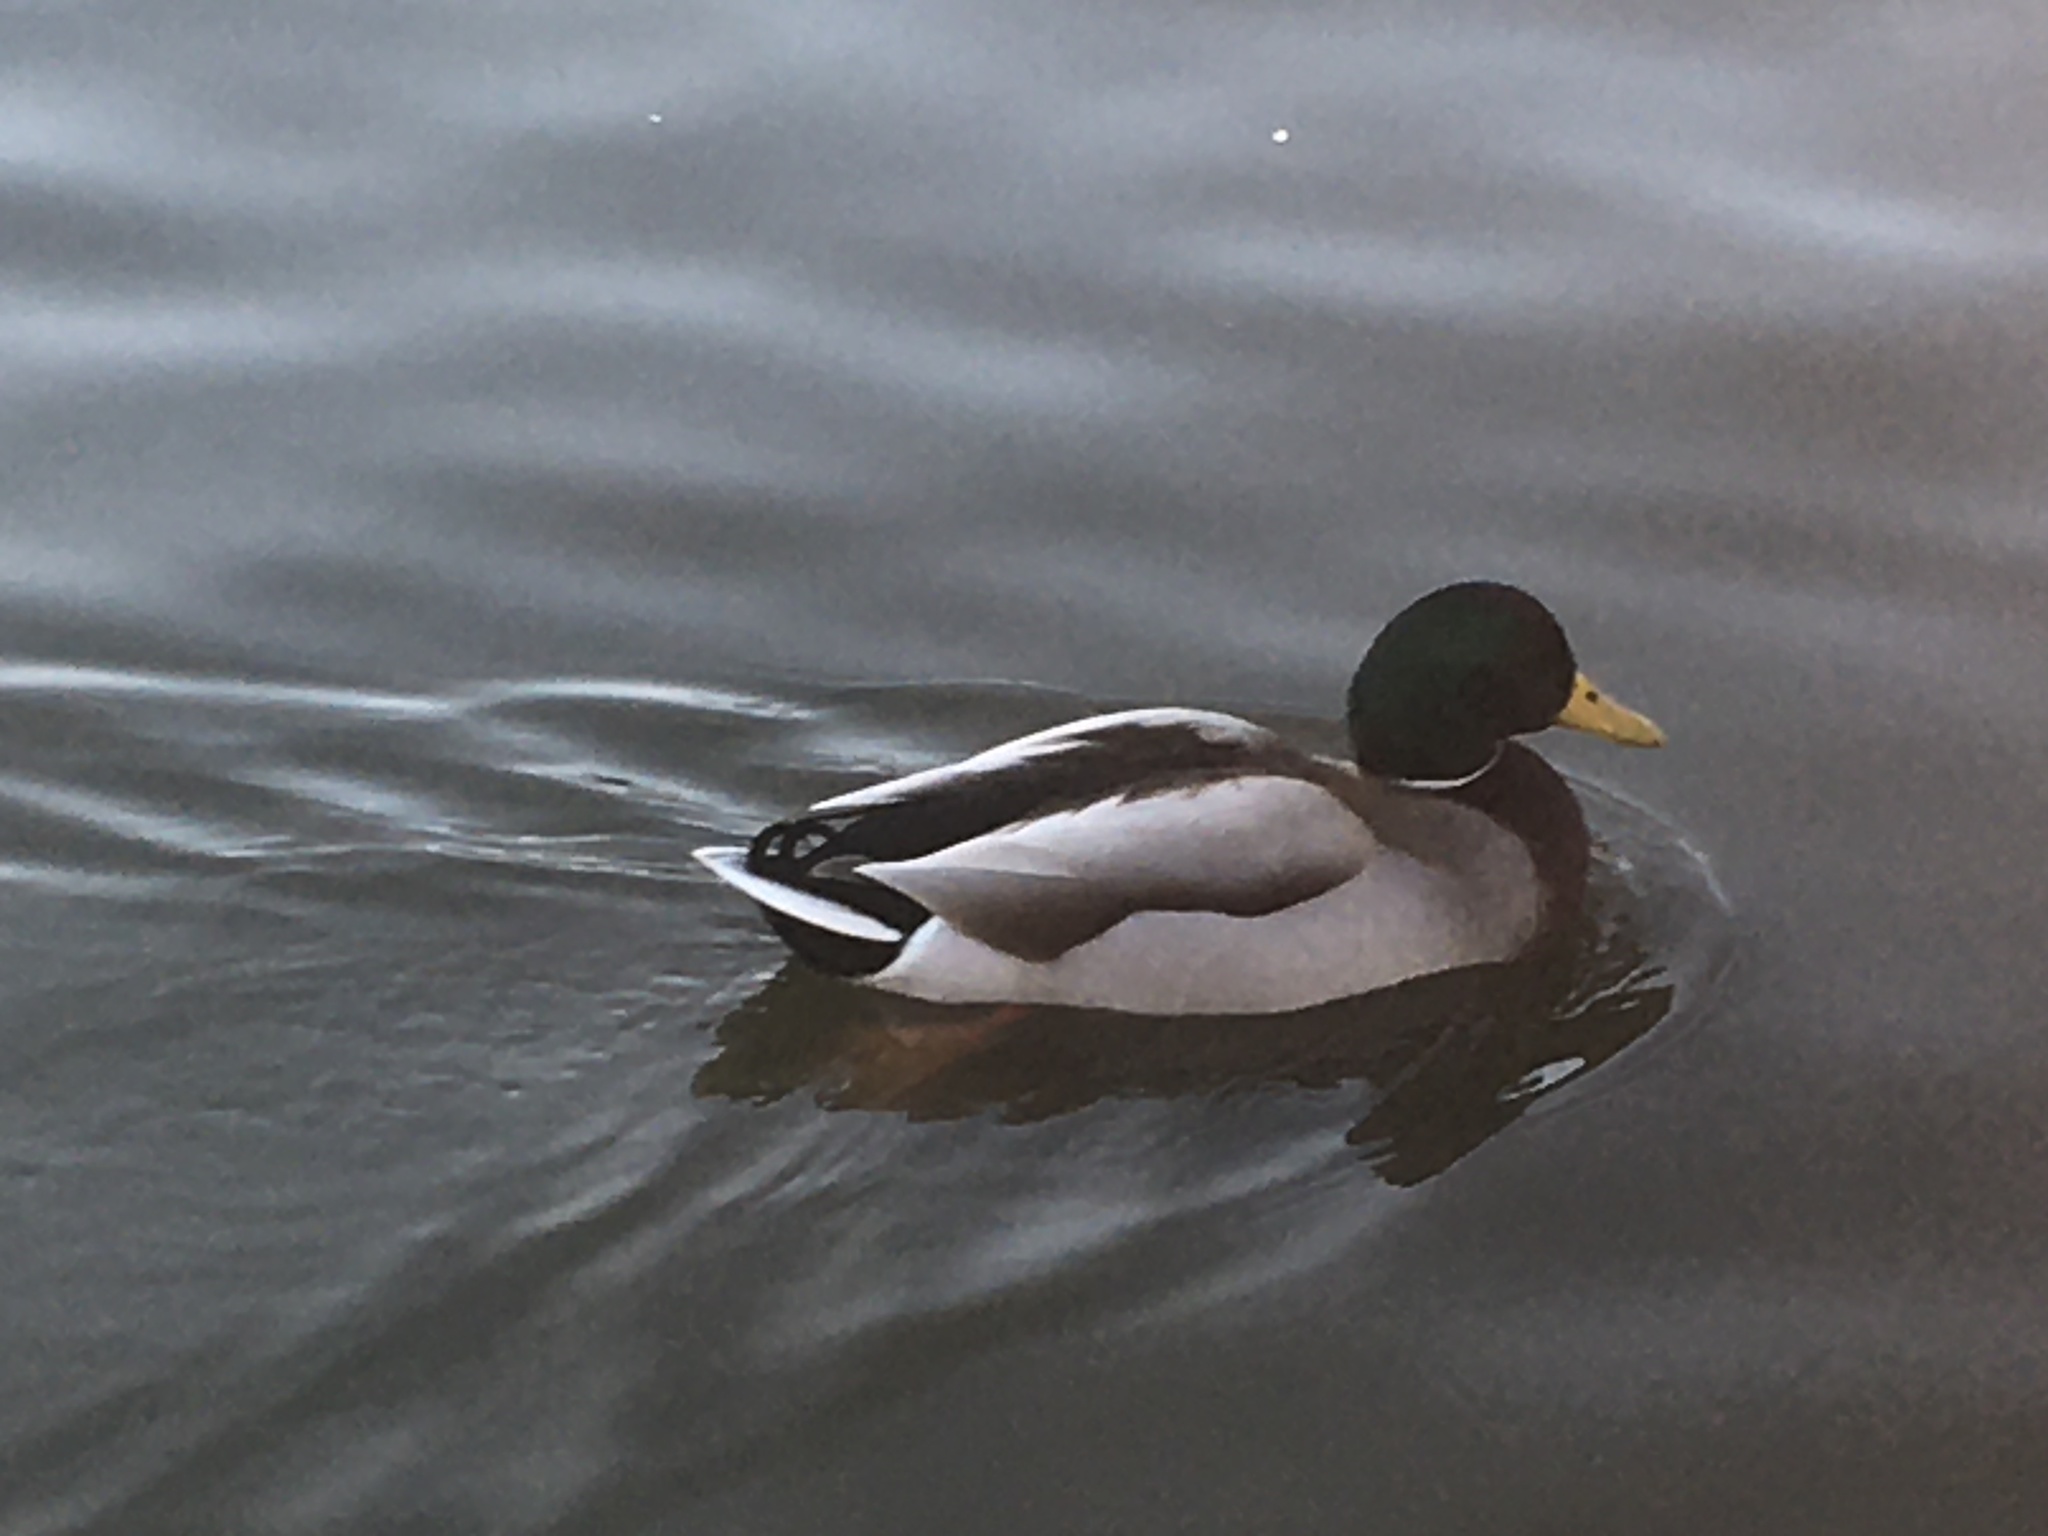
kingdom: Animalia
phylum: Chordata
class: Aves
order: Anseriformes
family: Anatidae
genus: Anas
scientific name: Anas platyrhynchos
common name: Mallard
